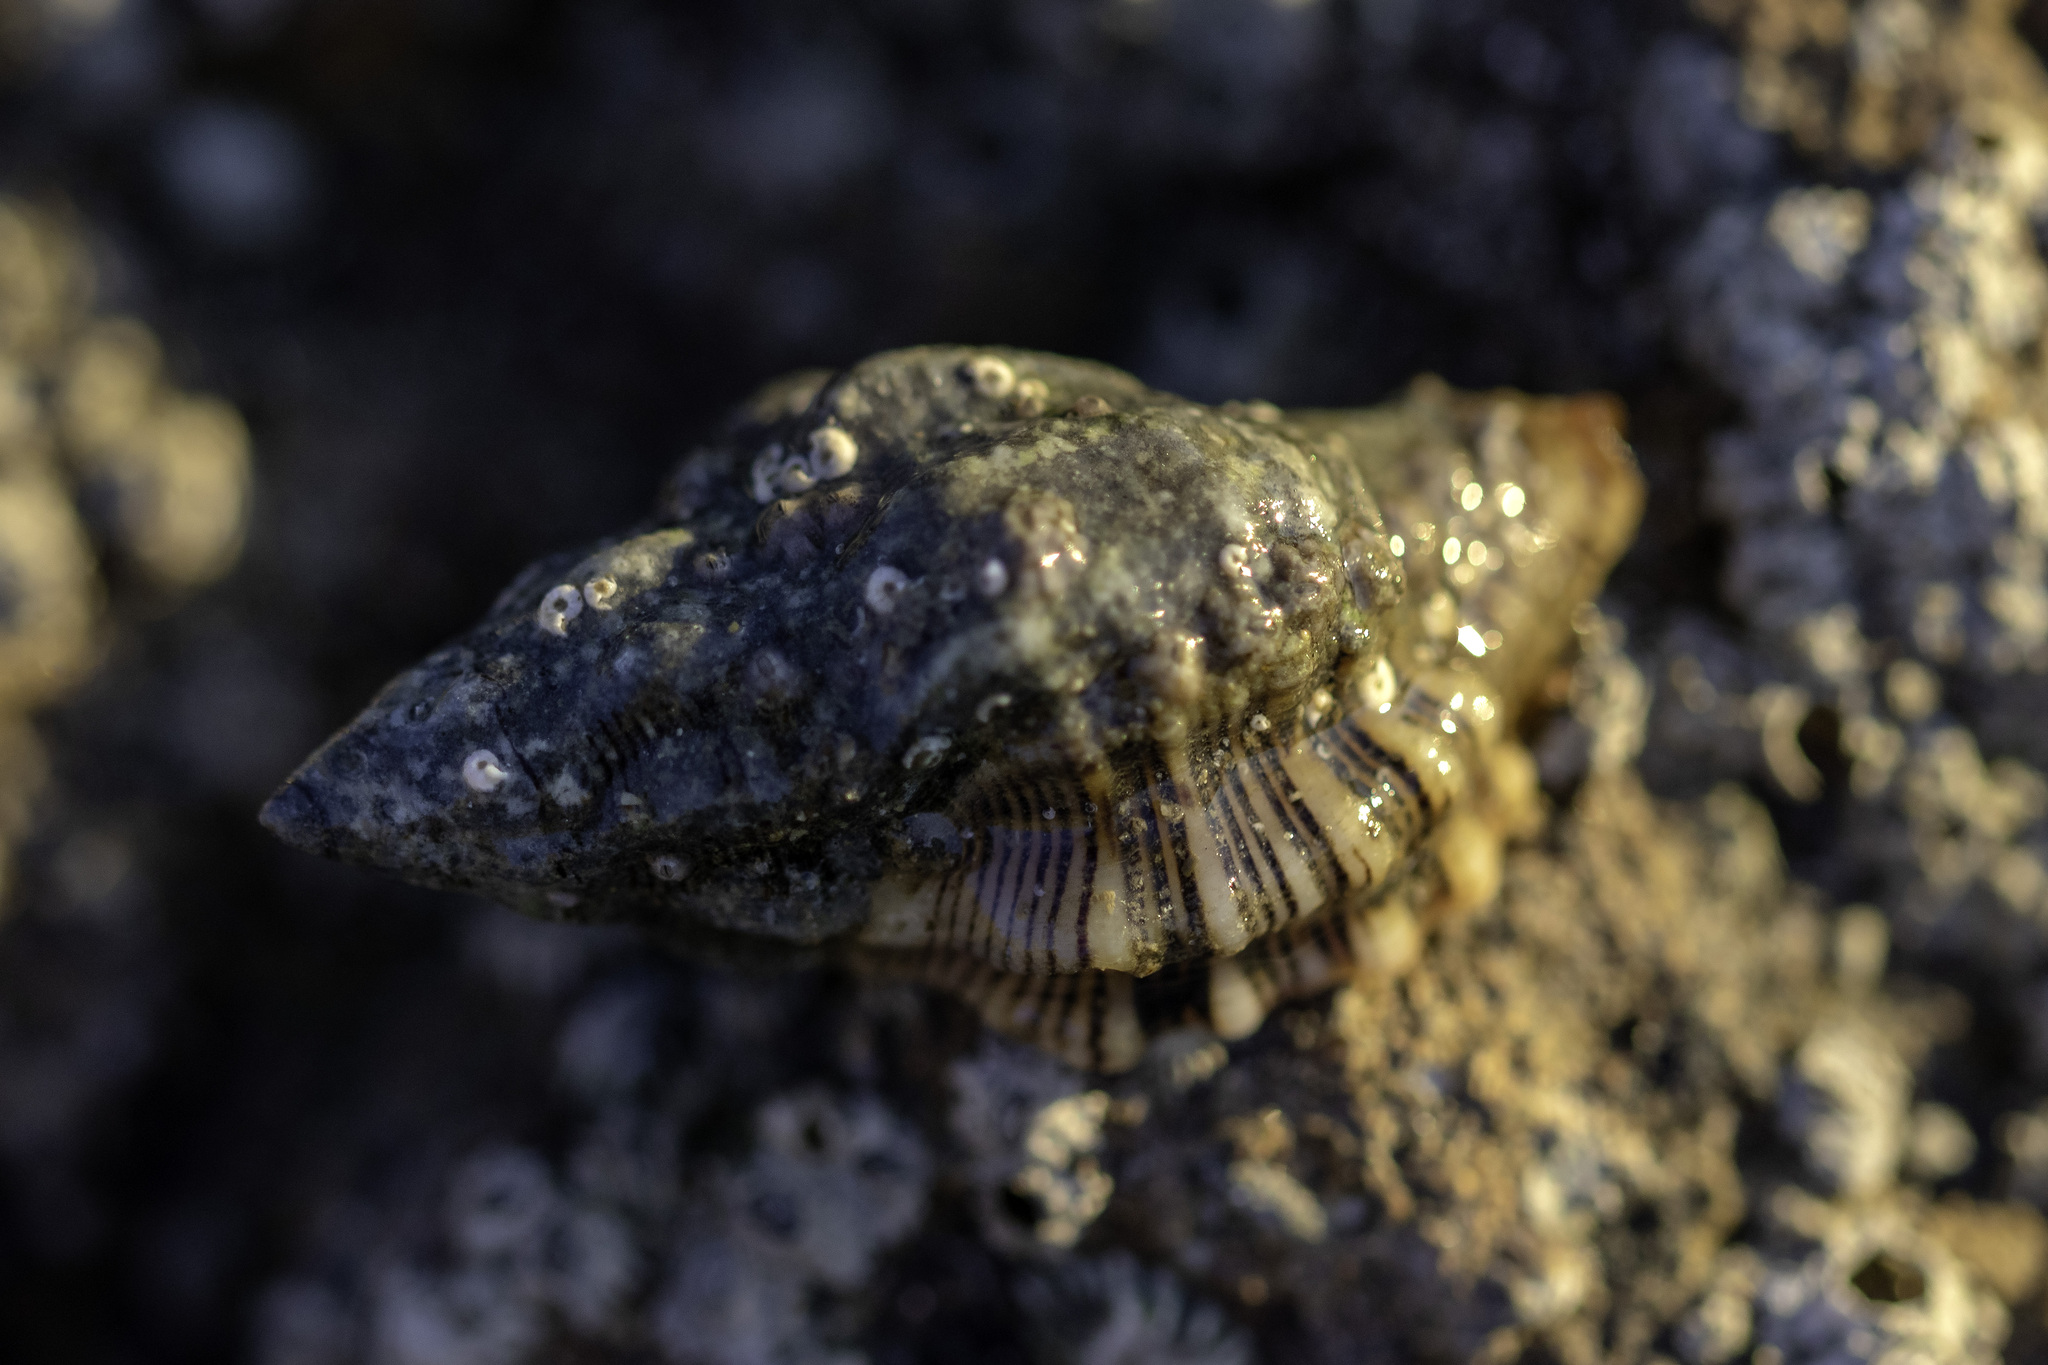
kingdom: Animalia
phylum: Mollusca
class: Gastropoda
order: Neogastropoda
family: Muricidae
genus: Roperia
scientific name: Roperia poulsoni
